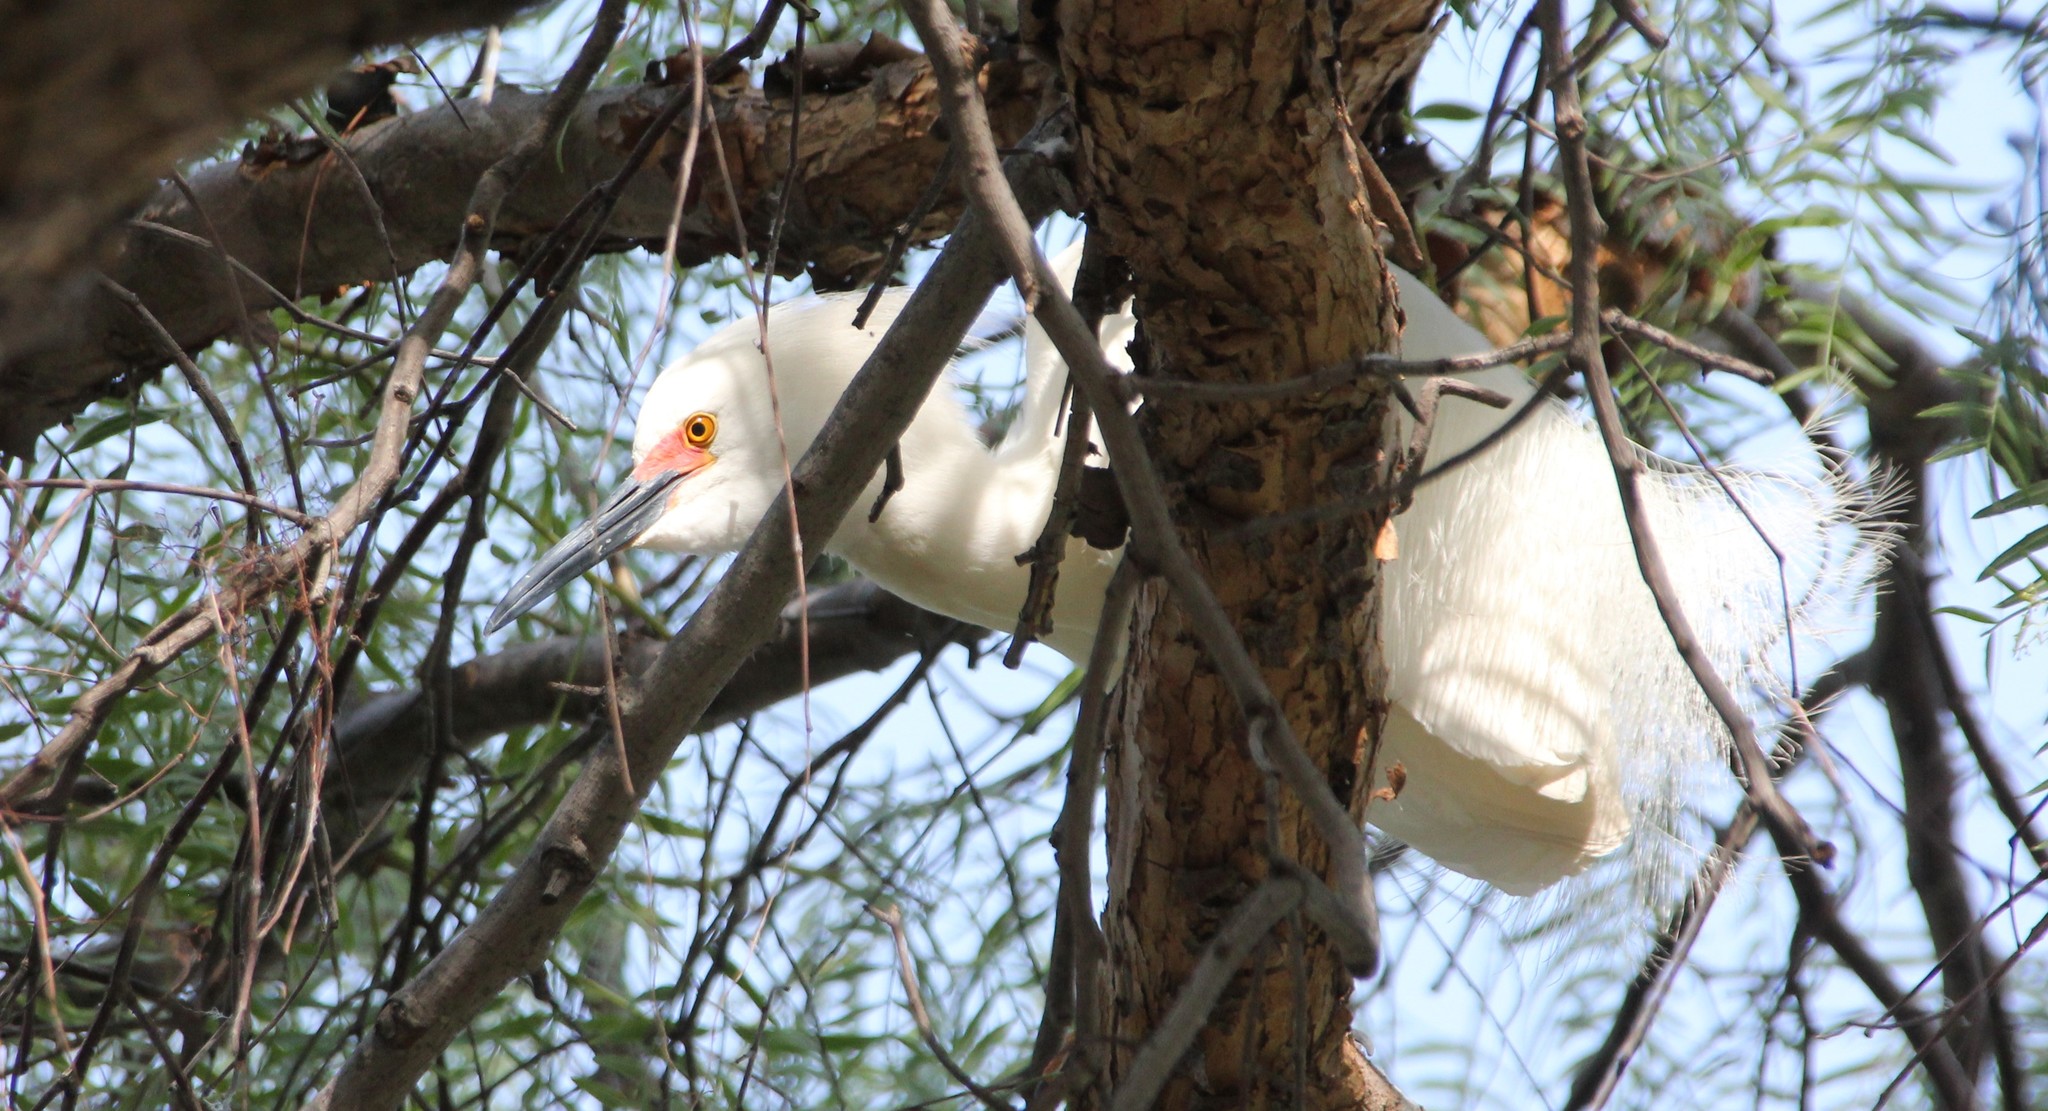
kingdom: Animalia
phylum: Chordata
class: Aves
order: Pelecaniformes
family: Ardeidae
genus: Egretta
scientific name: Egretta thula
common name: Snowy egret
